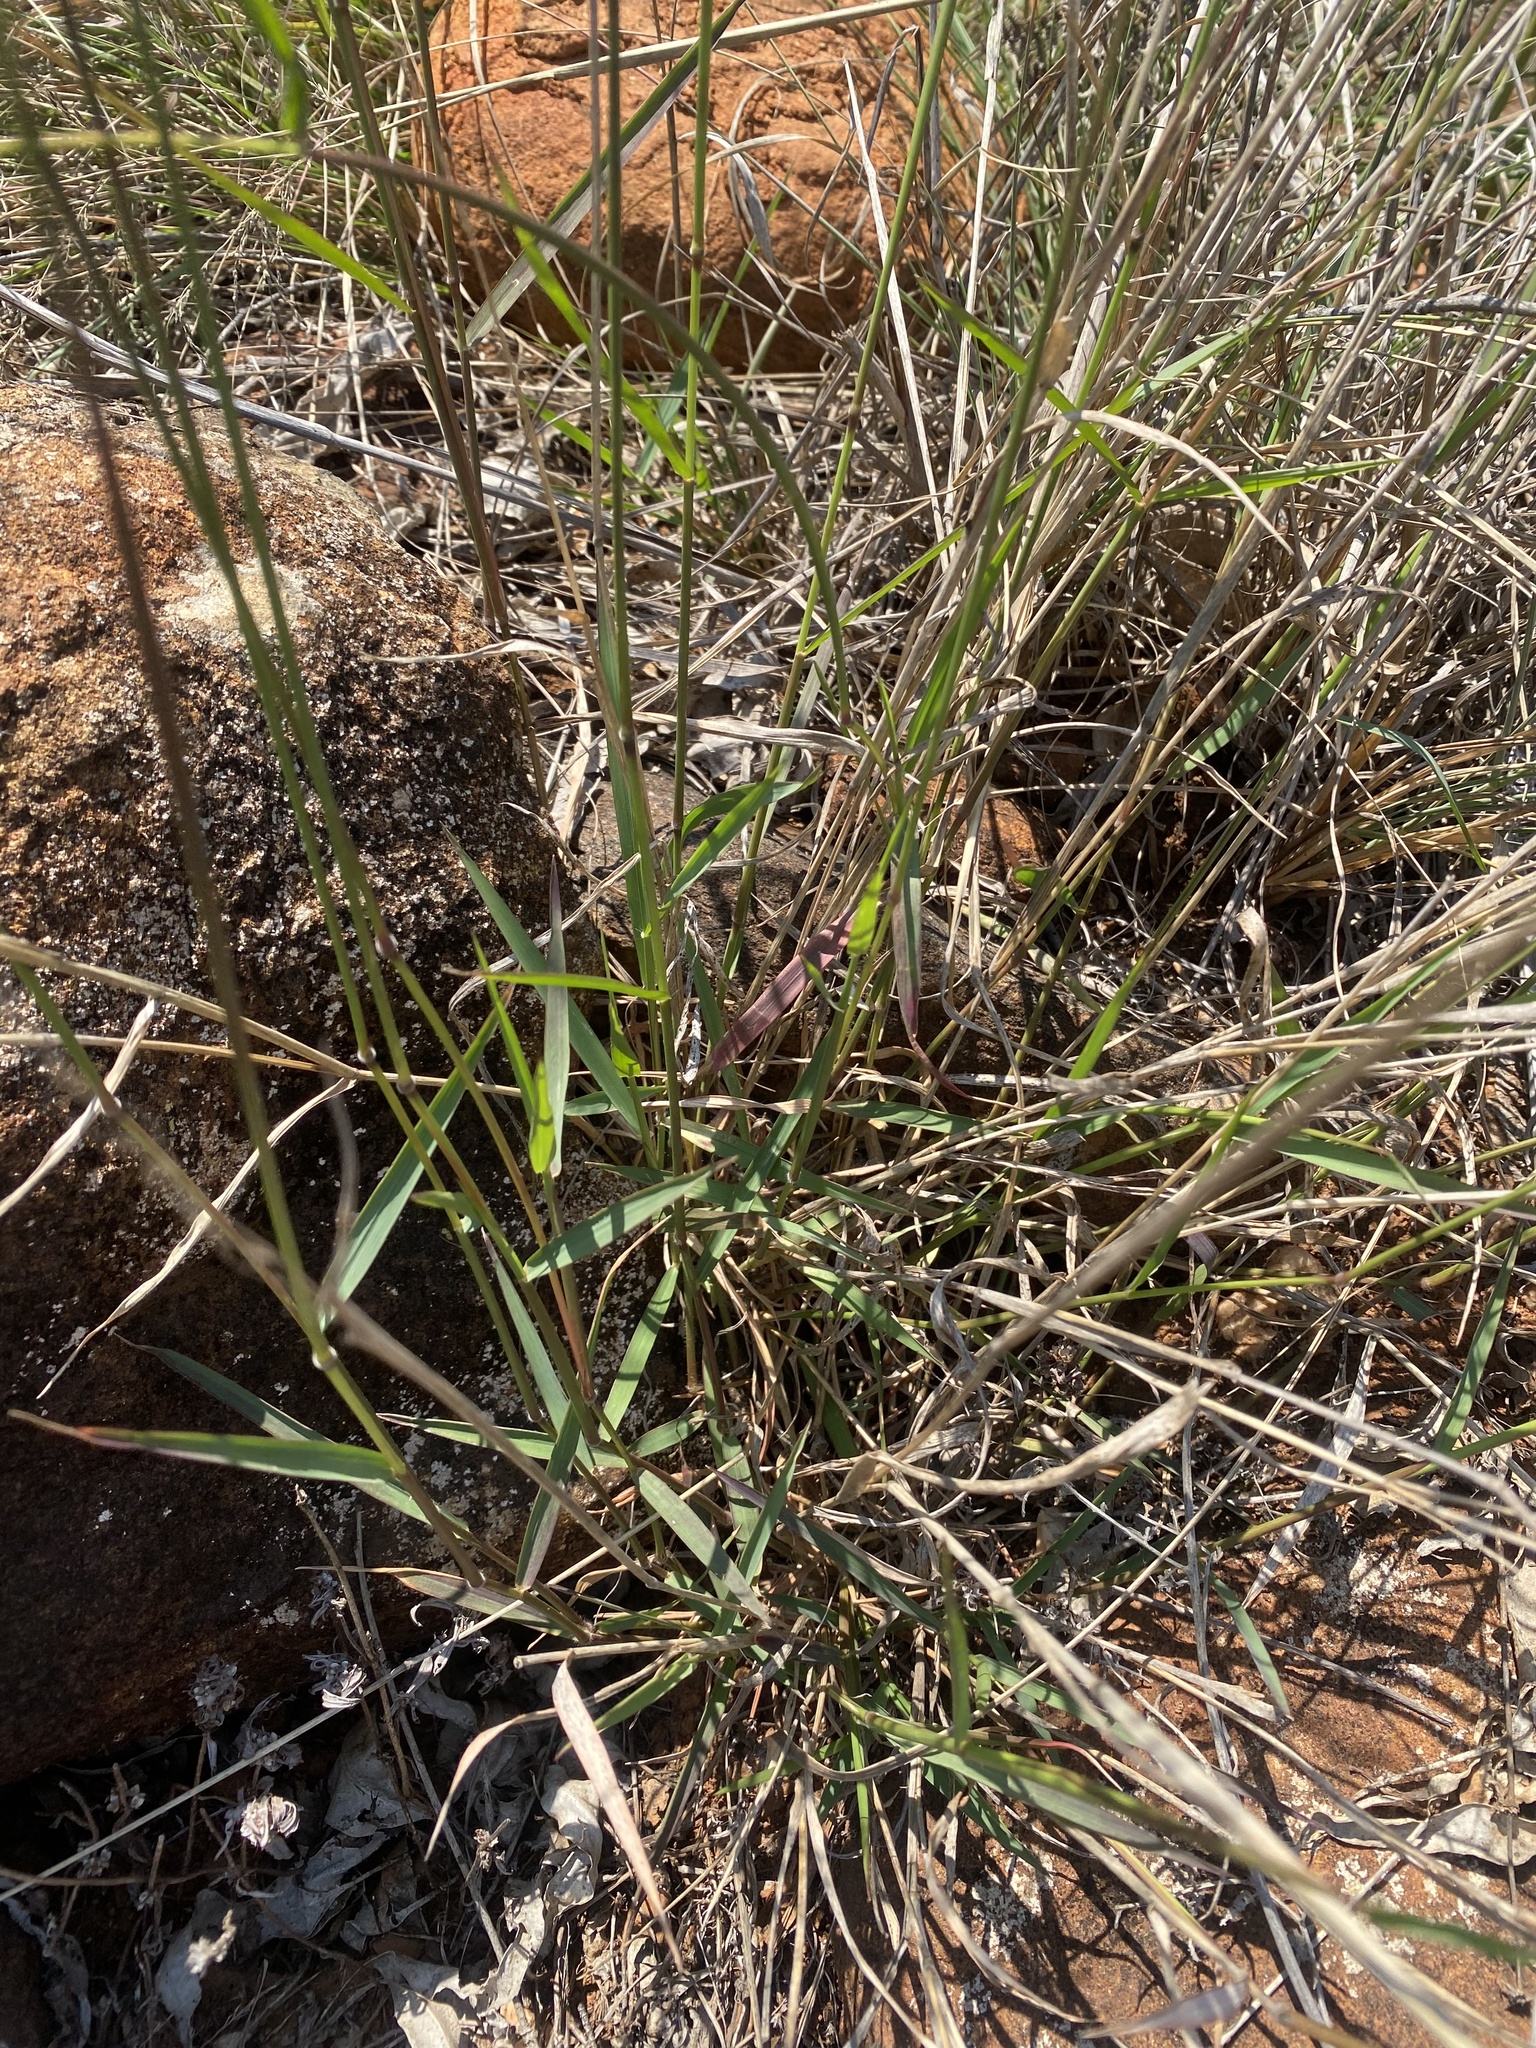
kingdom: Plantae
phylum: Tracheophyta
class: Liliopsida
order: Poales
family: Poaceae
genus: Melinis
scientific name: Melinis repens
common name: Rose natal grass
